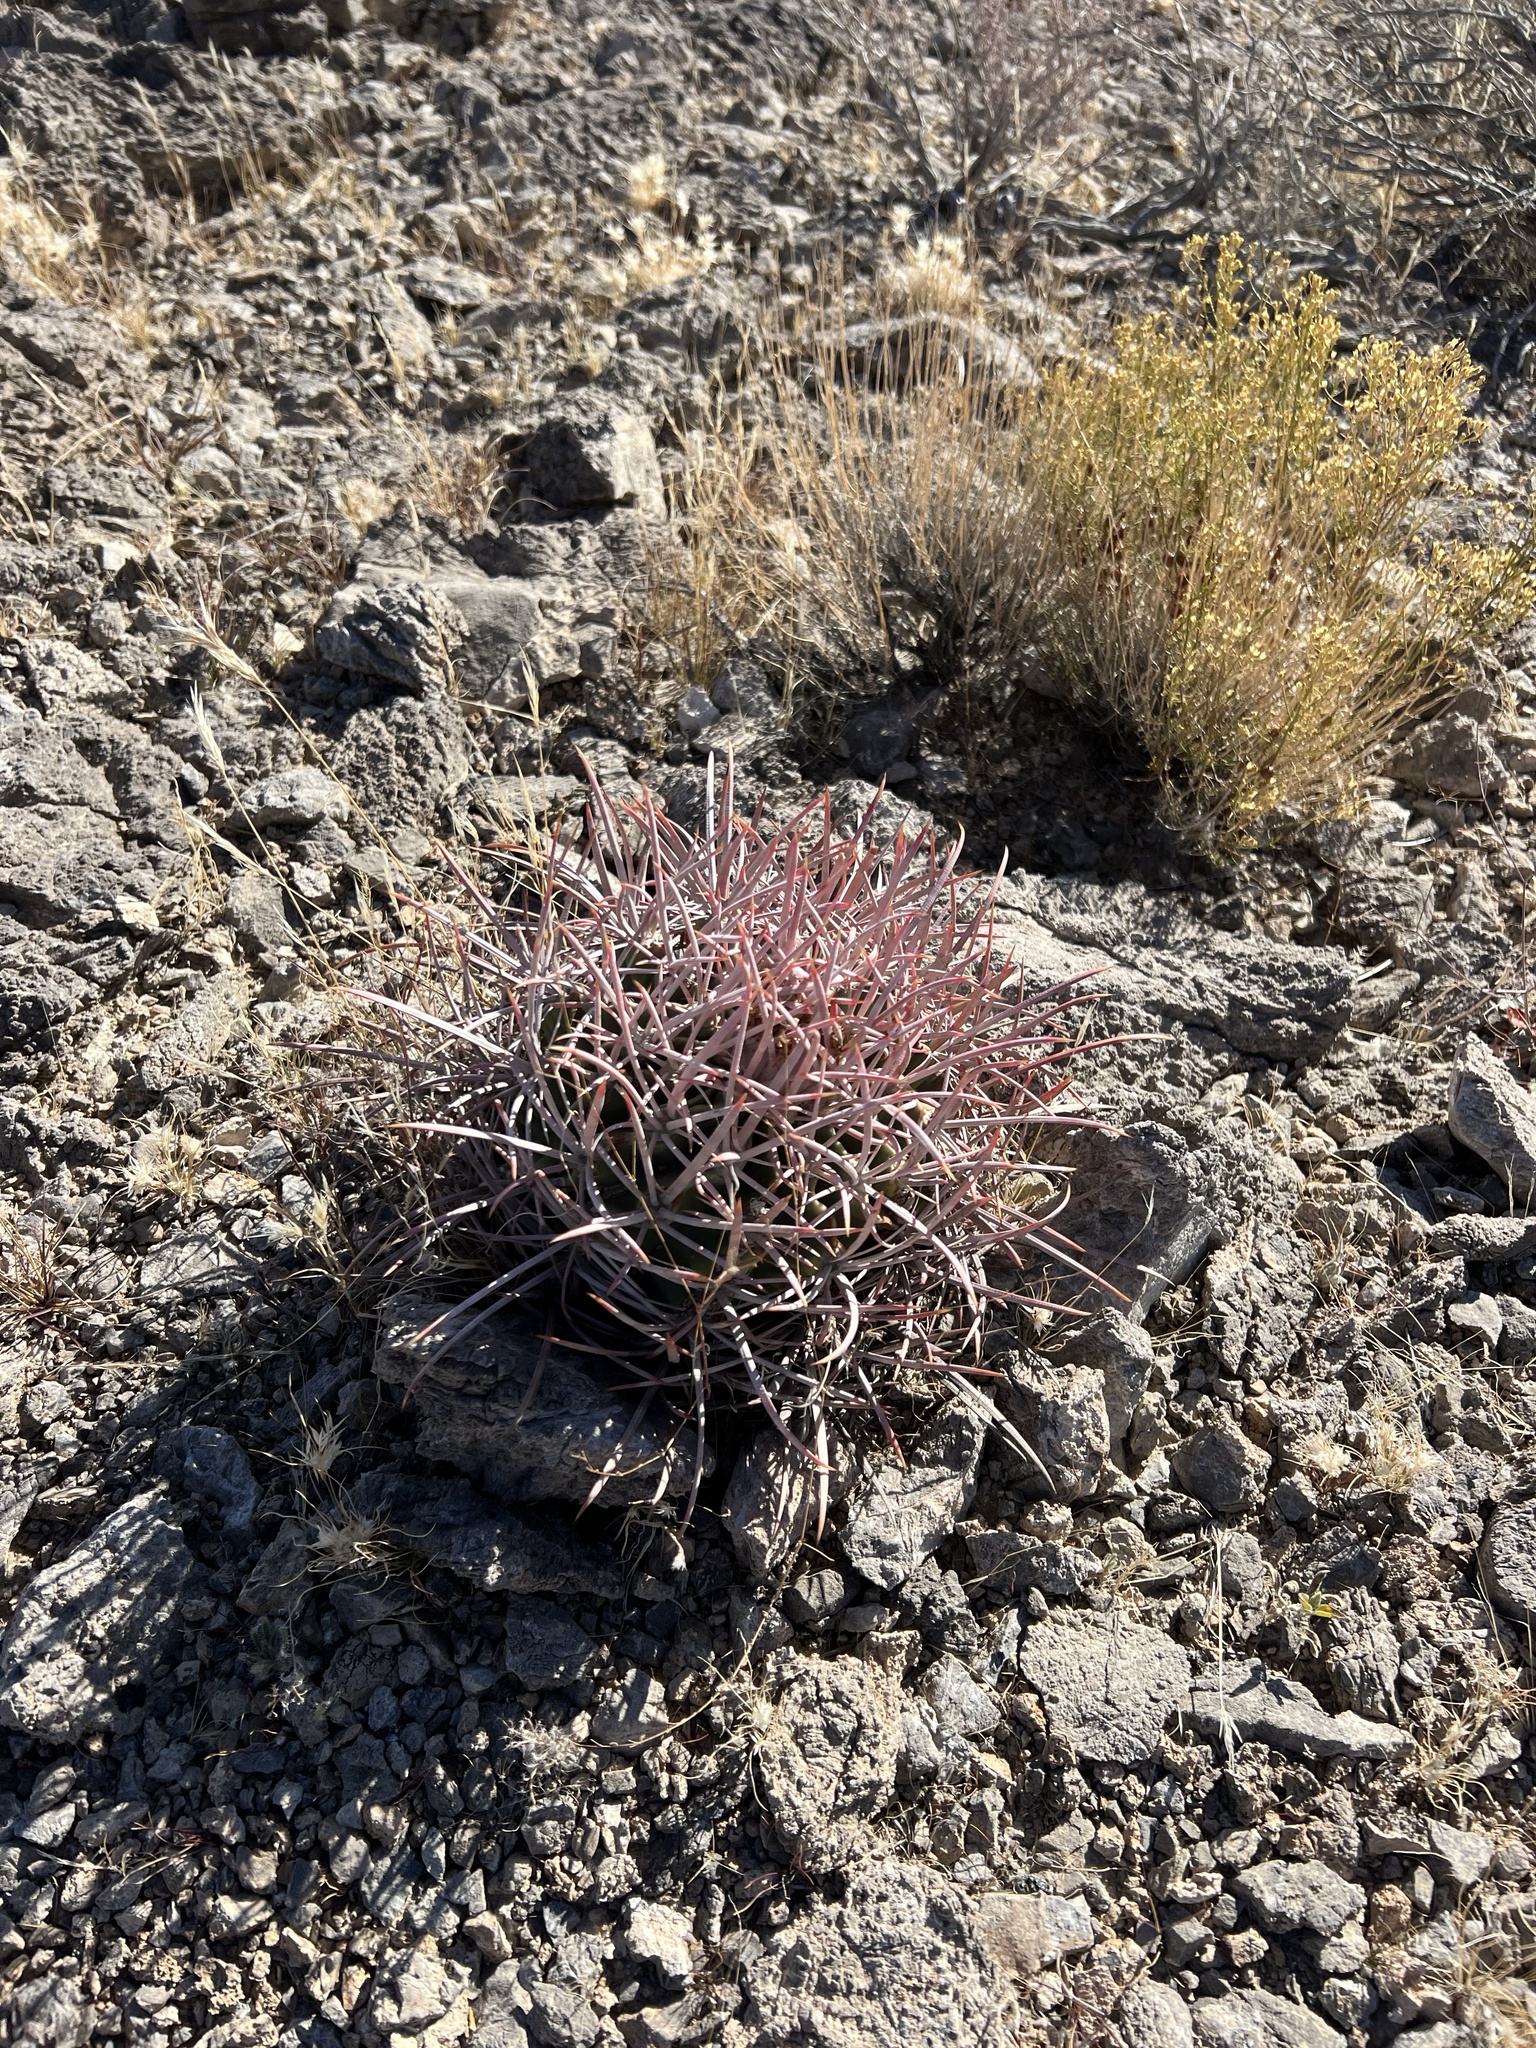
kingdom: Plantae
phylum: Tracheophyta
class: Magnoliopsida
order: Caryophyllales
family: Cactaceae
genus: Echinocactus
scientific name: Echinocactus polycephalus
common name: Cottontop cactus
